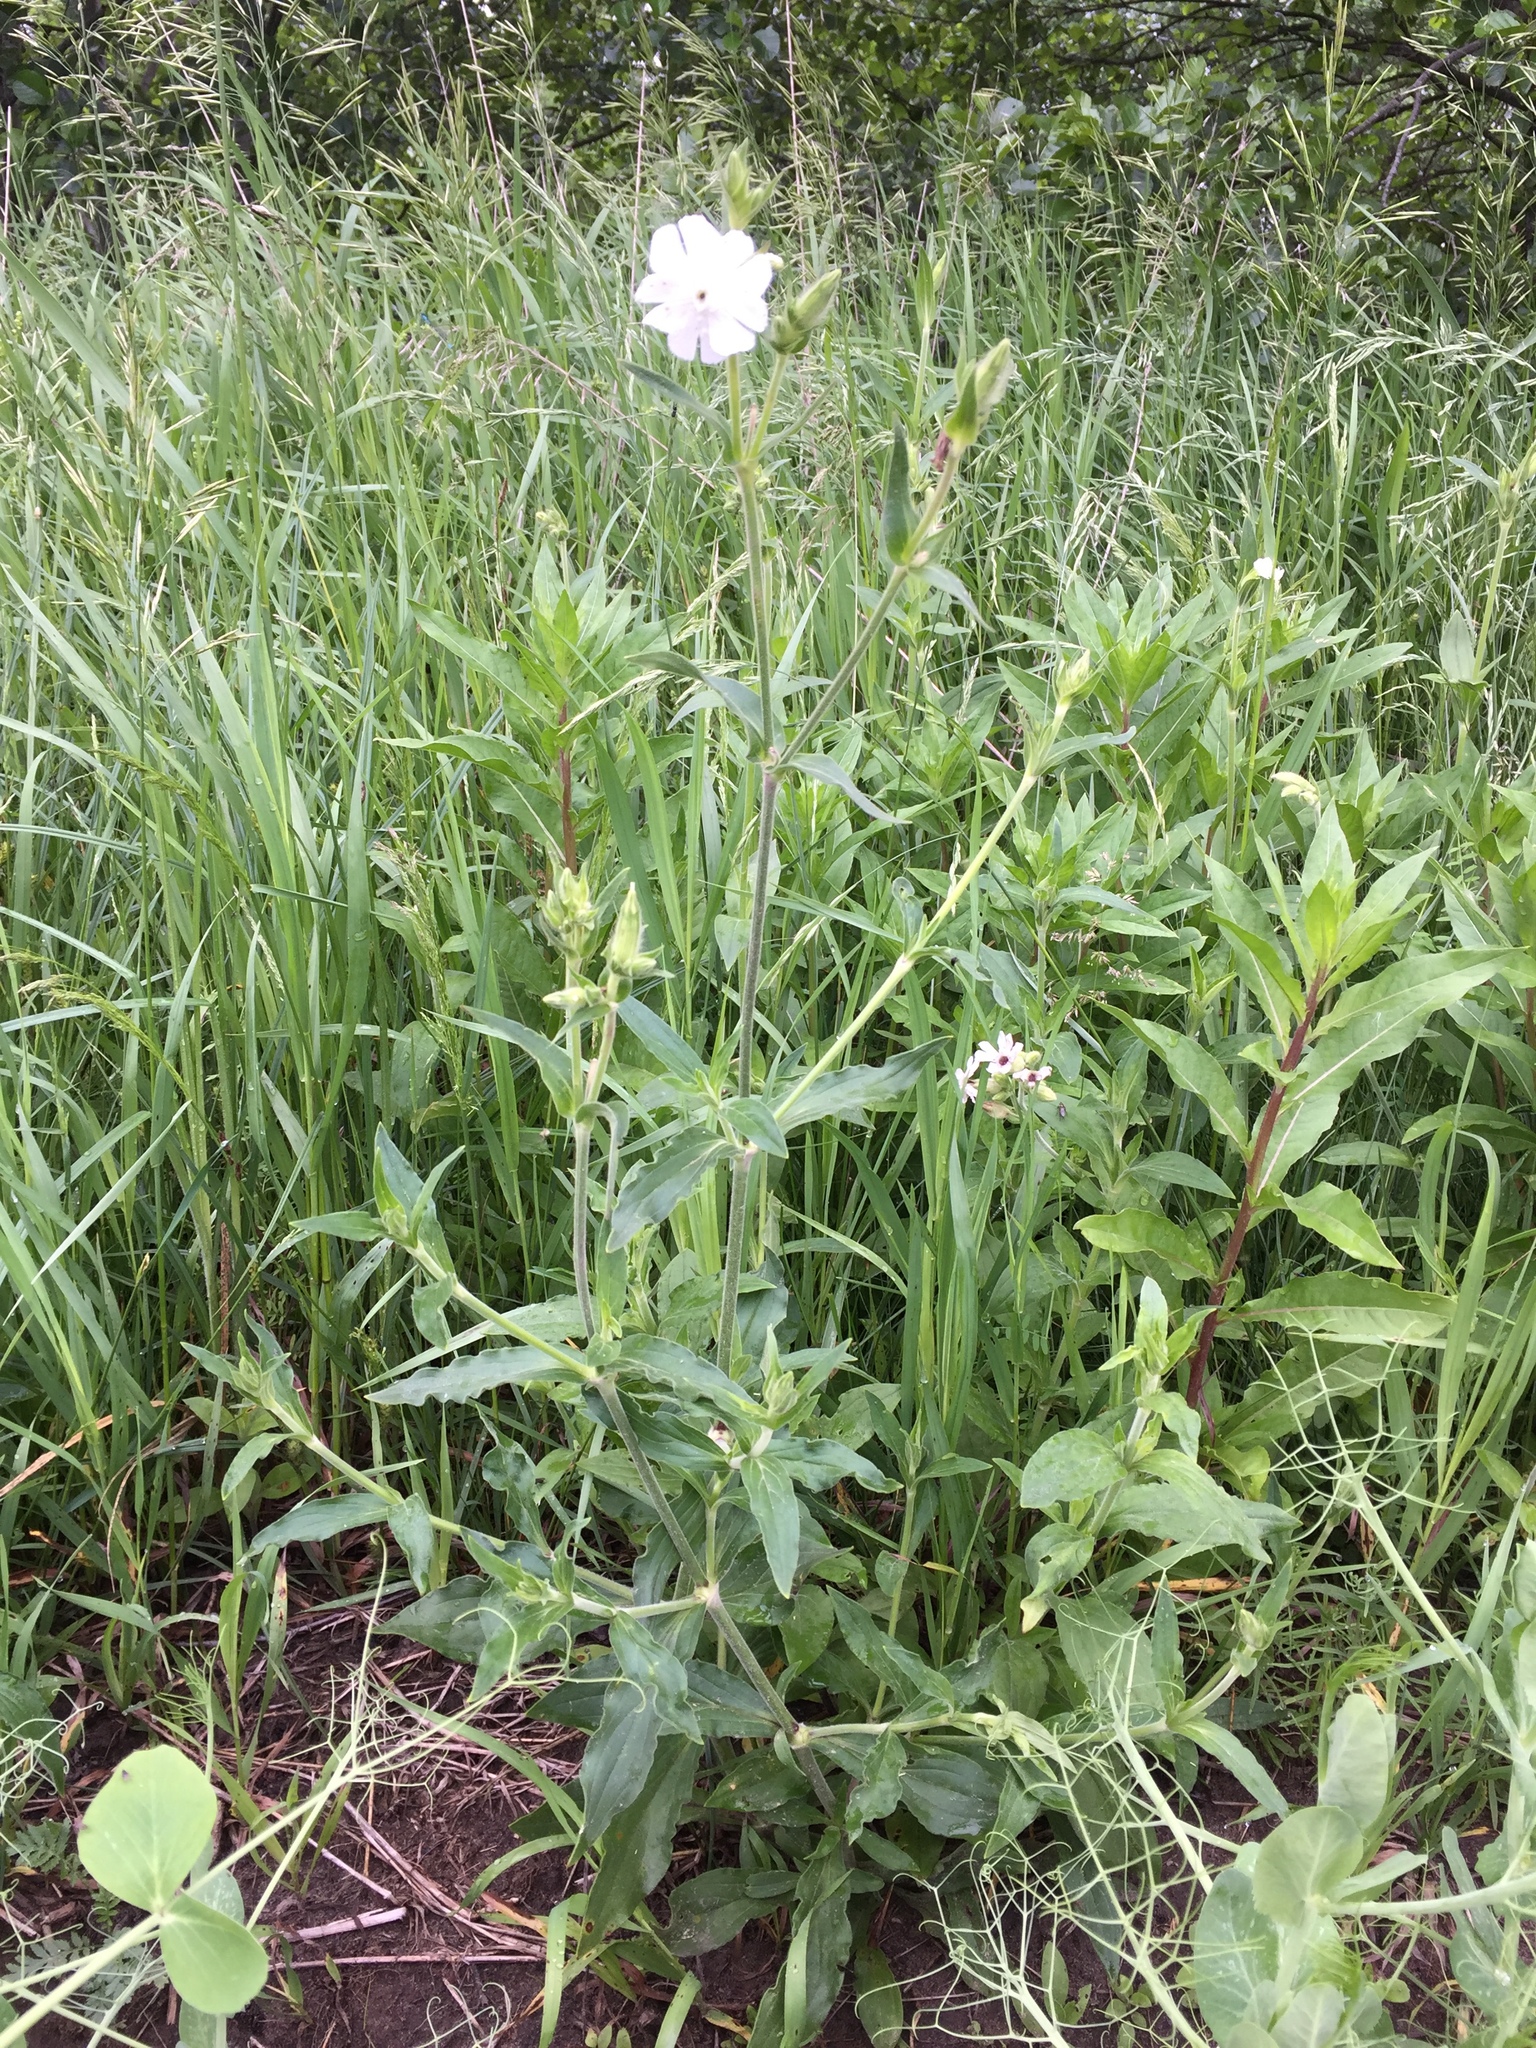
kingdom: Plantae
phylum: Tracheophyta
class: Magnoliopsida
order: Caryophyllales
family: Caryophyllaceae
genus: Silene
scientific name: Silene latifolia
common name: White campion
